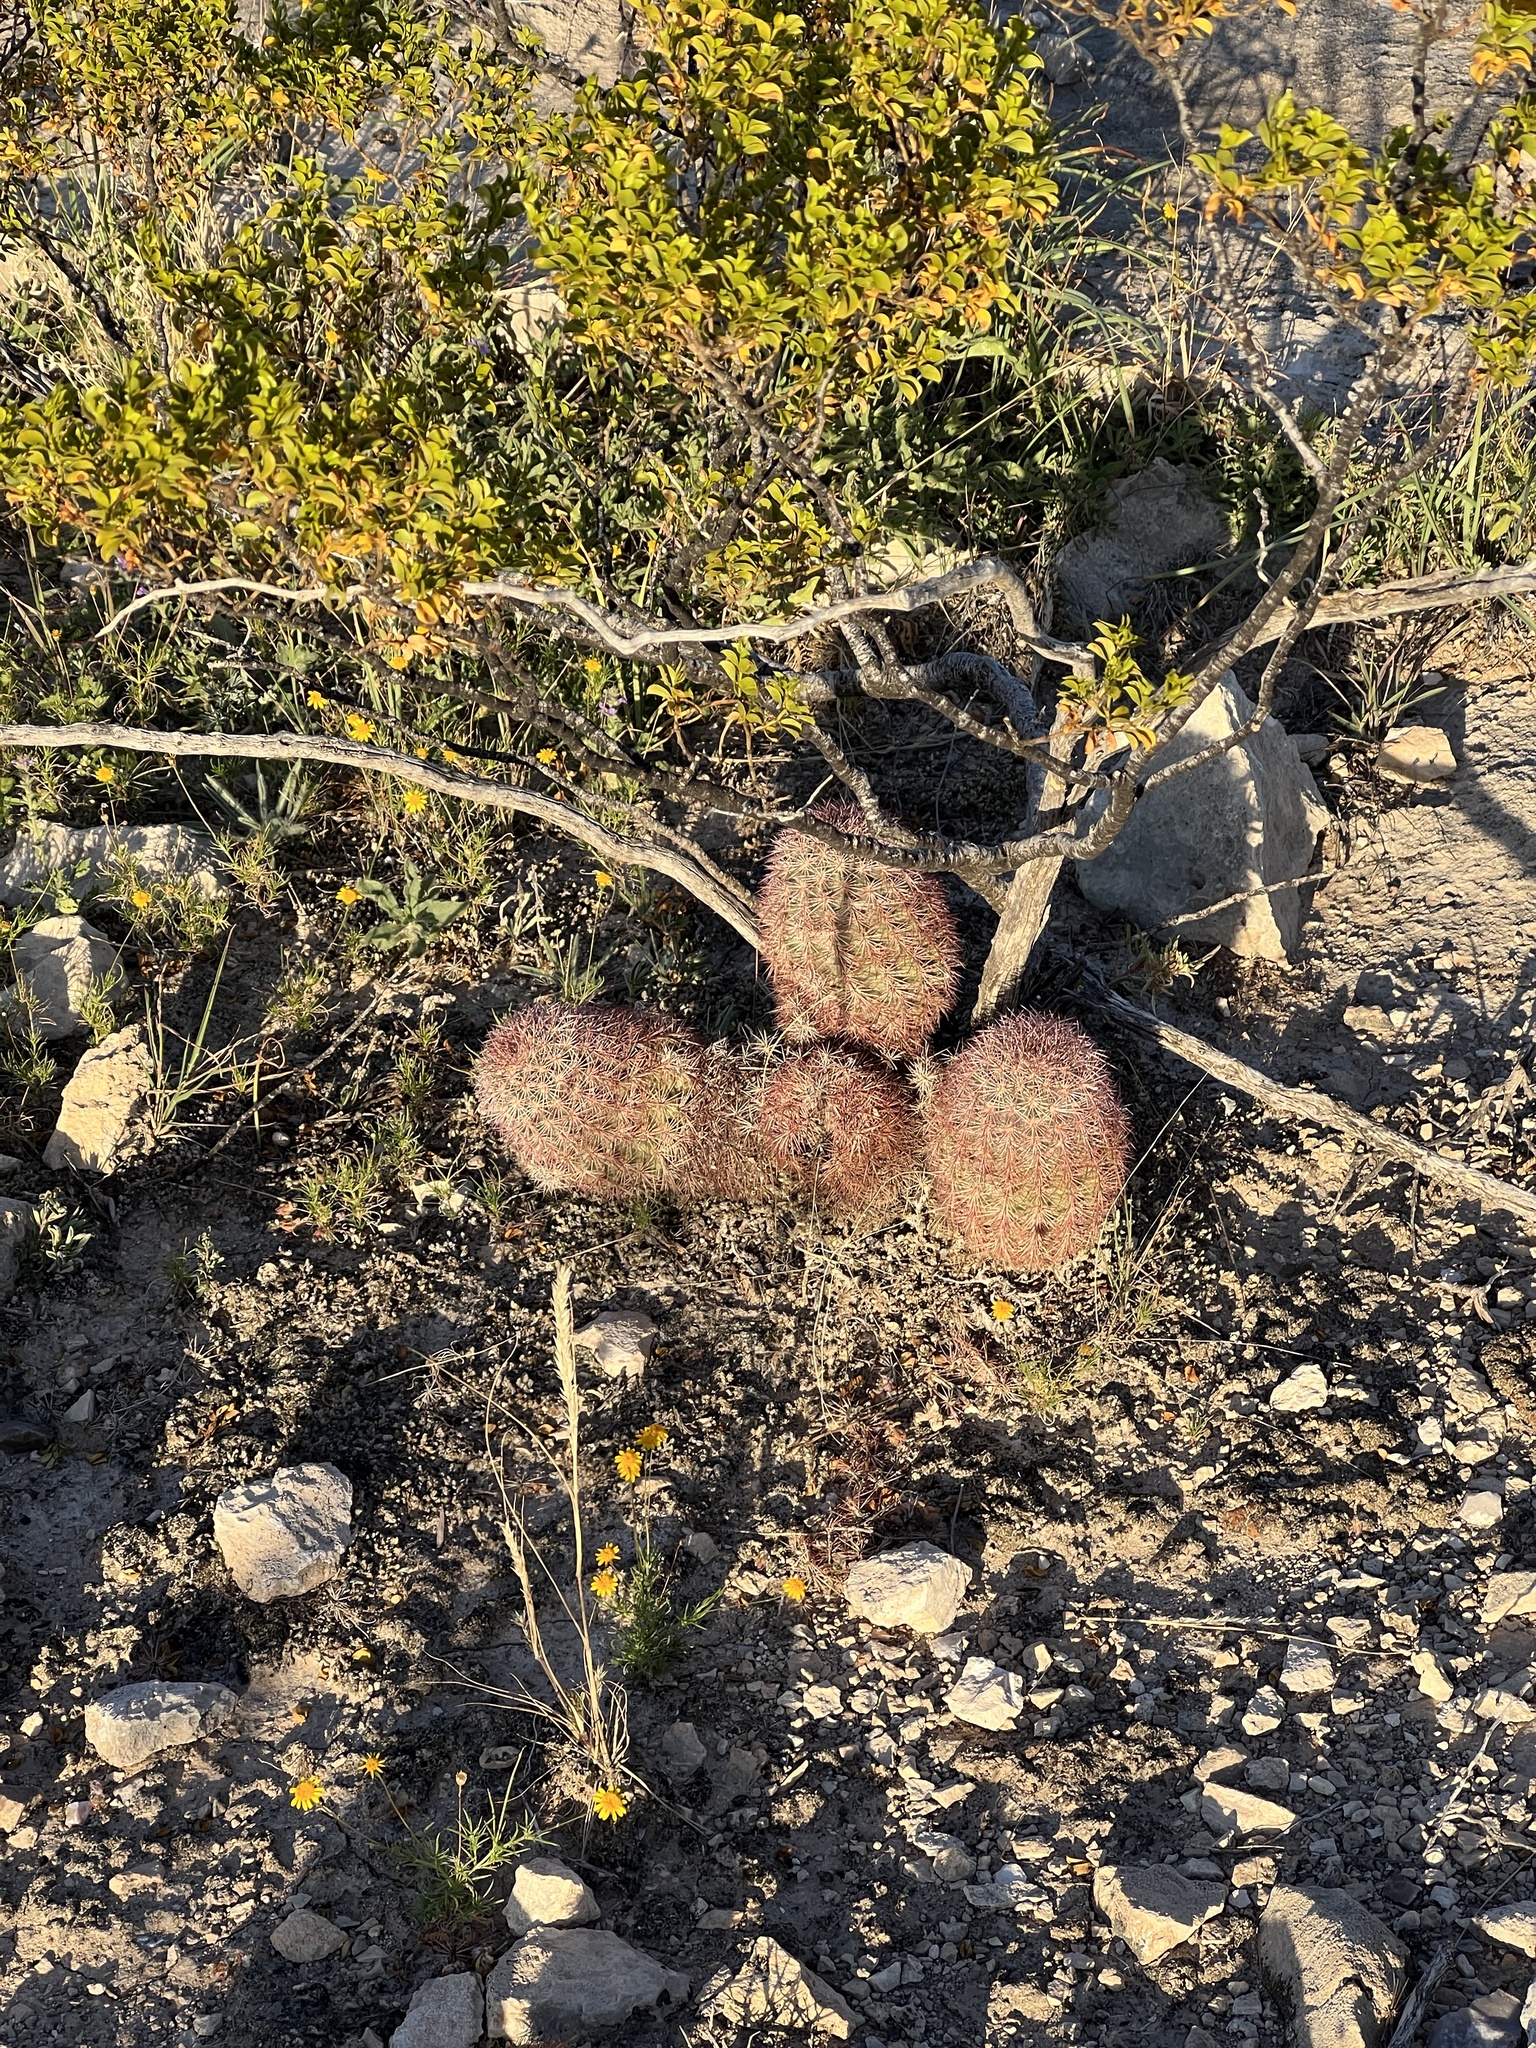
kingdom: Plantae
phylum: Tracheophyta
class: Magnoliopsida
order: Caryophyllales
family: Cactaceae
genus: Echinocereus
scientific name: Echinocereus dasyacanthus
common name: Spiny hedgehog cactus
